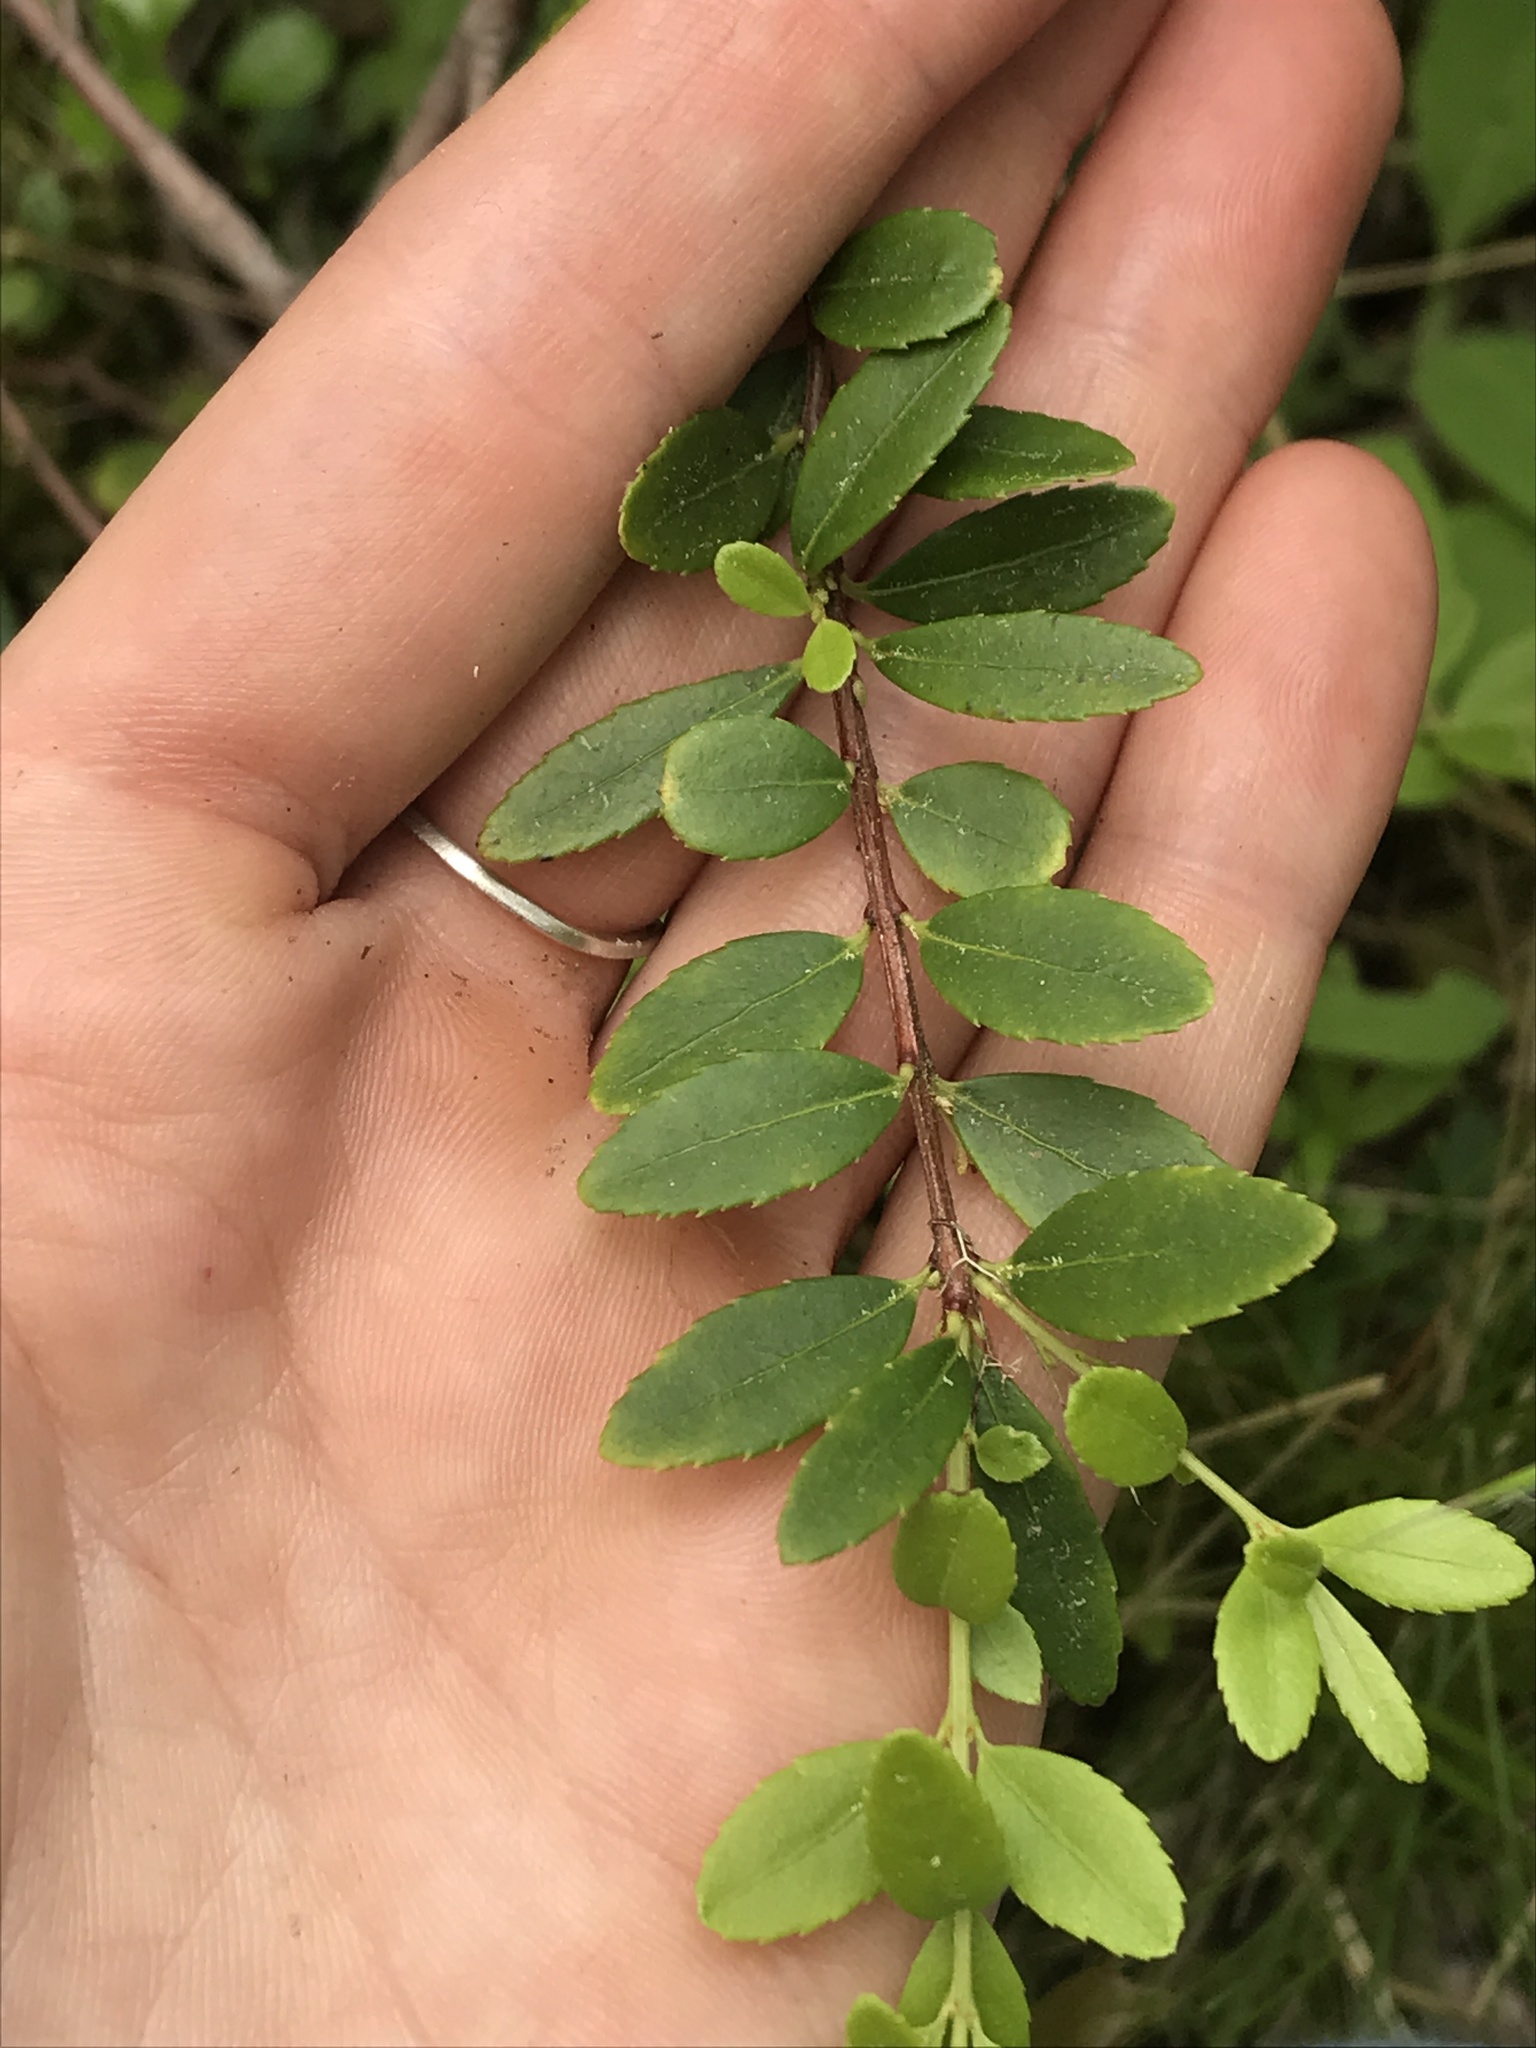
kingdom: Plantae
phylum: Tracheophyta
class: Magnoliopsida
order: Celastrales
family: Celastraceae
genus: Paxistima
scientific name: Paxistima myrsinites
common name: Mountain-lover
